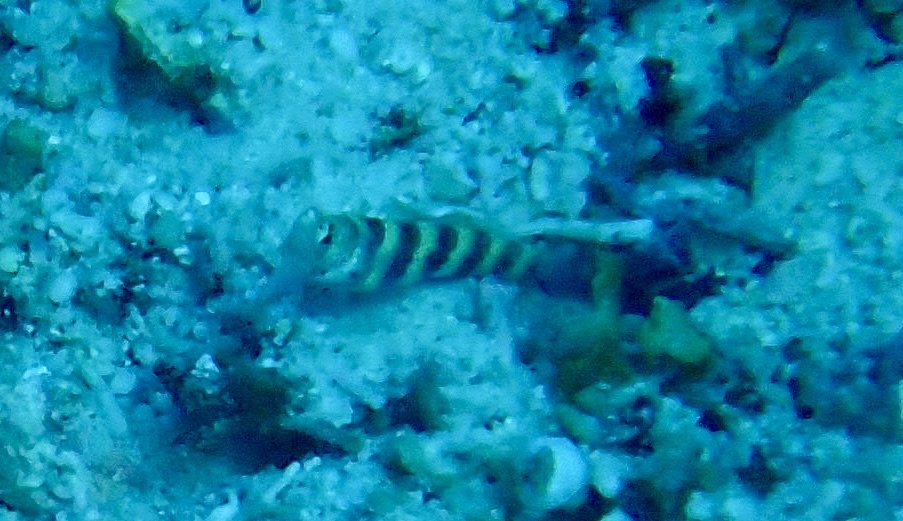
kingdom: Animalia
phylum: Chordata
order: Perciformes
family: Gobiidae
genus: Amblyeleotris
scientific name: Amblyeleotris wheeleri
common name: Gorgeous prawn-goby
